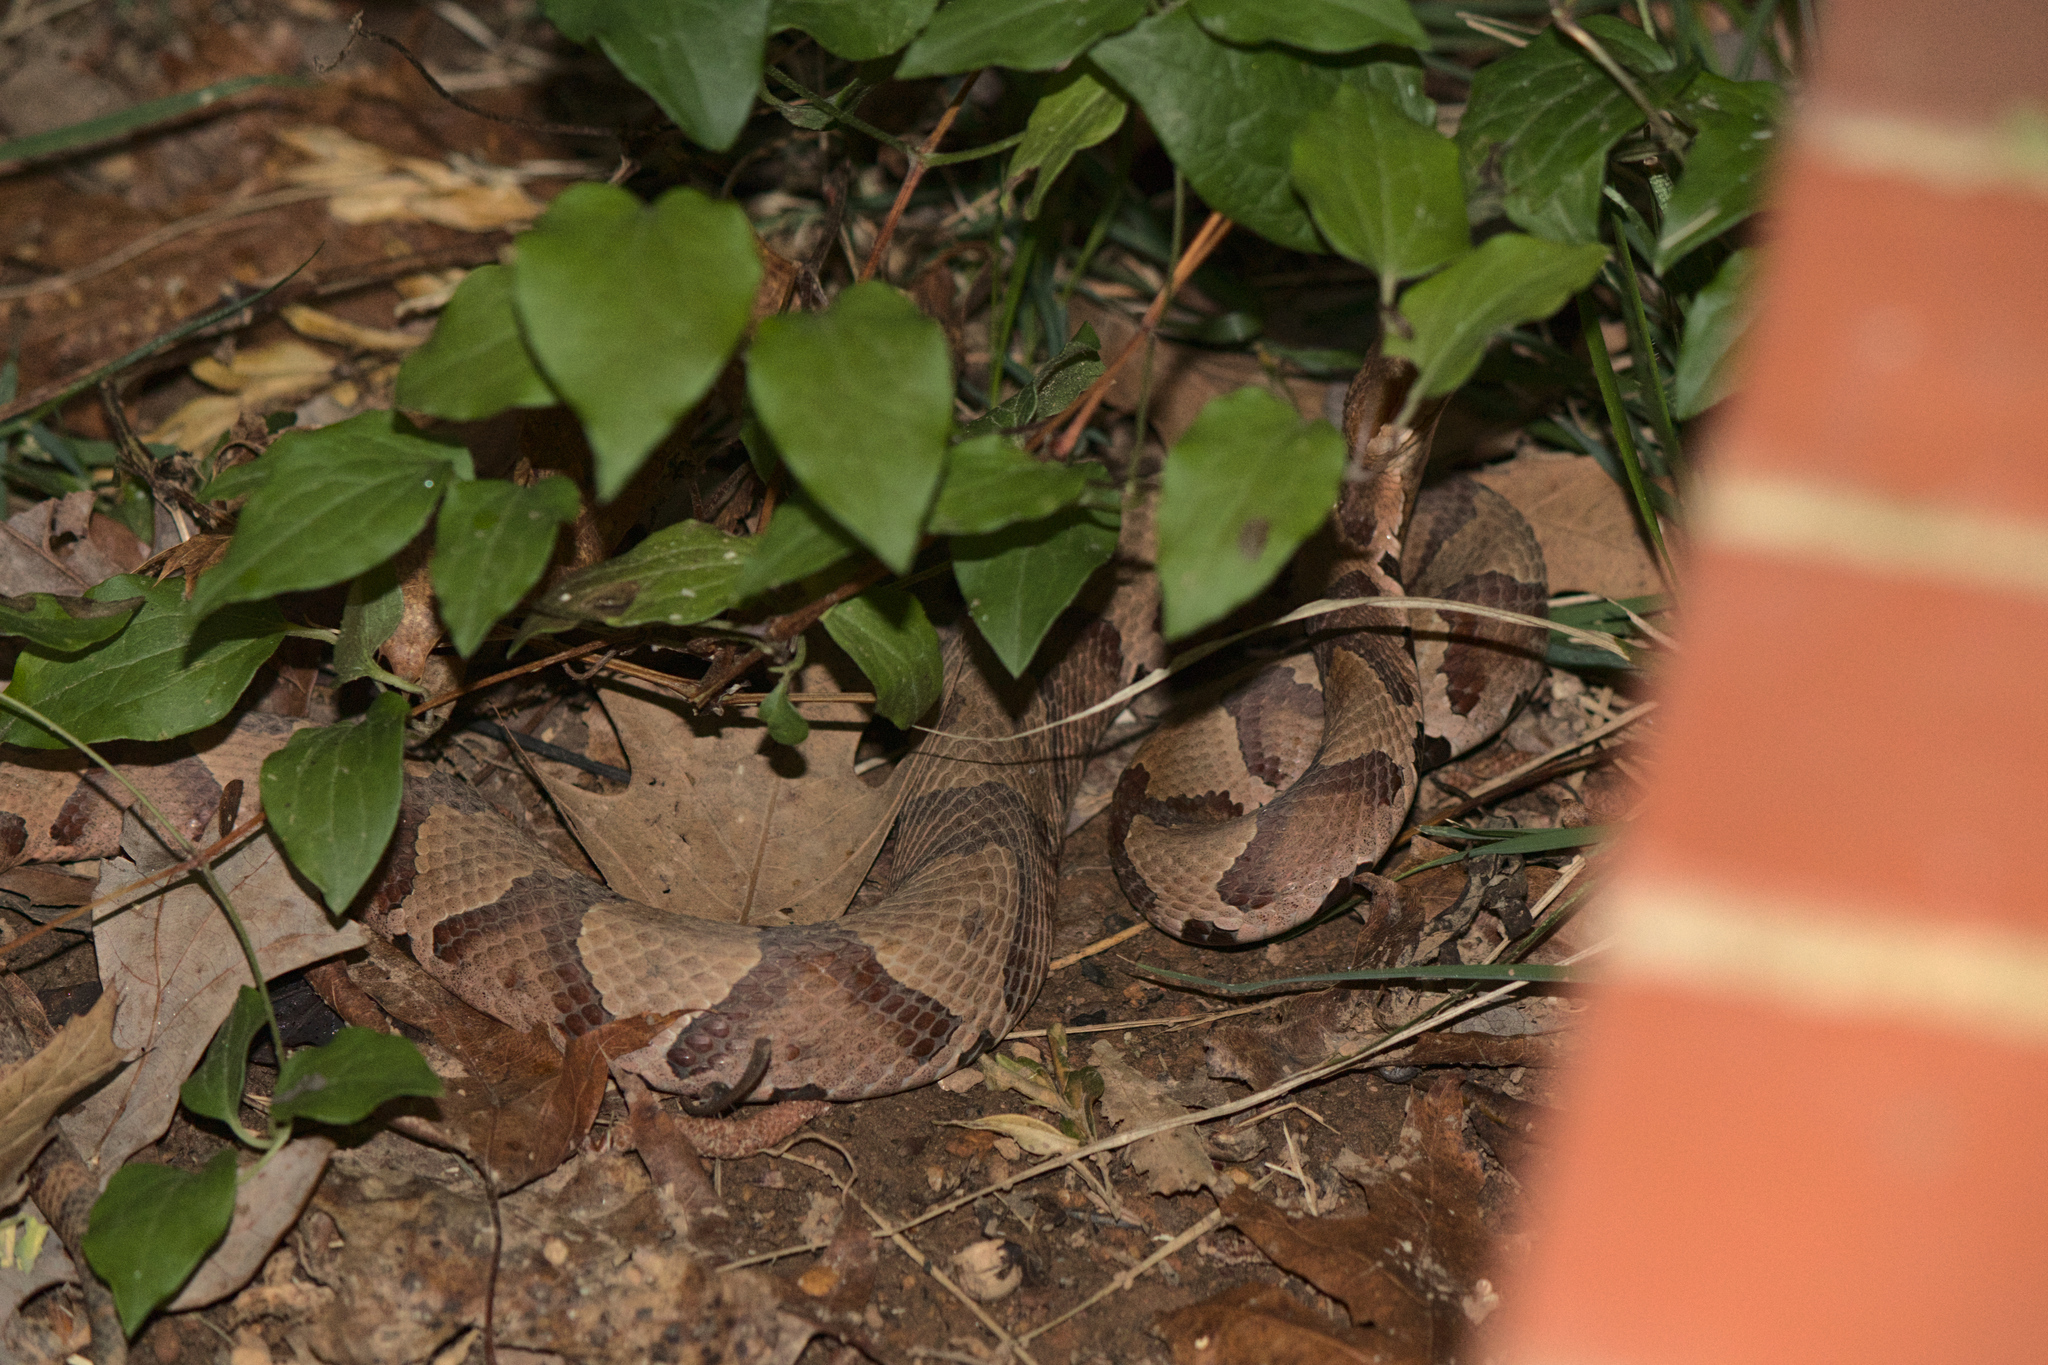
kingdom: Animalia
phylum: Chordata
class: Squamata
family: Viperidae
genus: Agkistrodon
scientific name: Agkistrodon contortrix
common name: Northern copperhead
